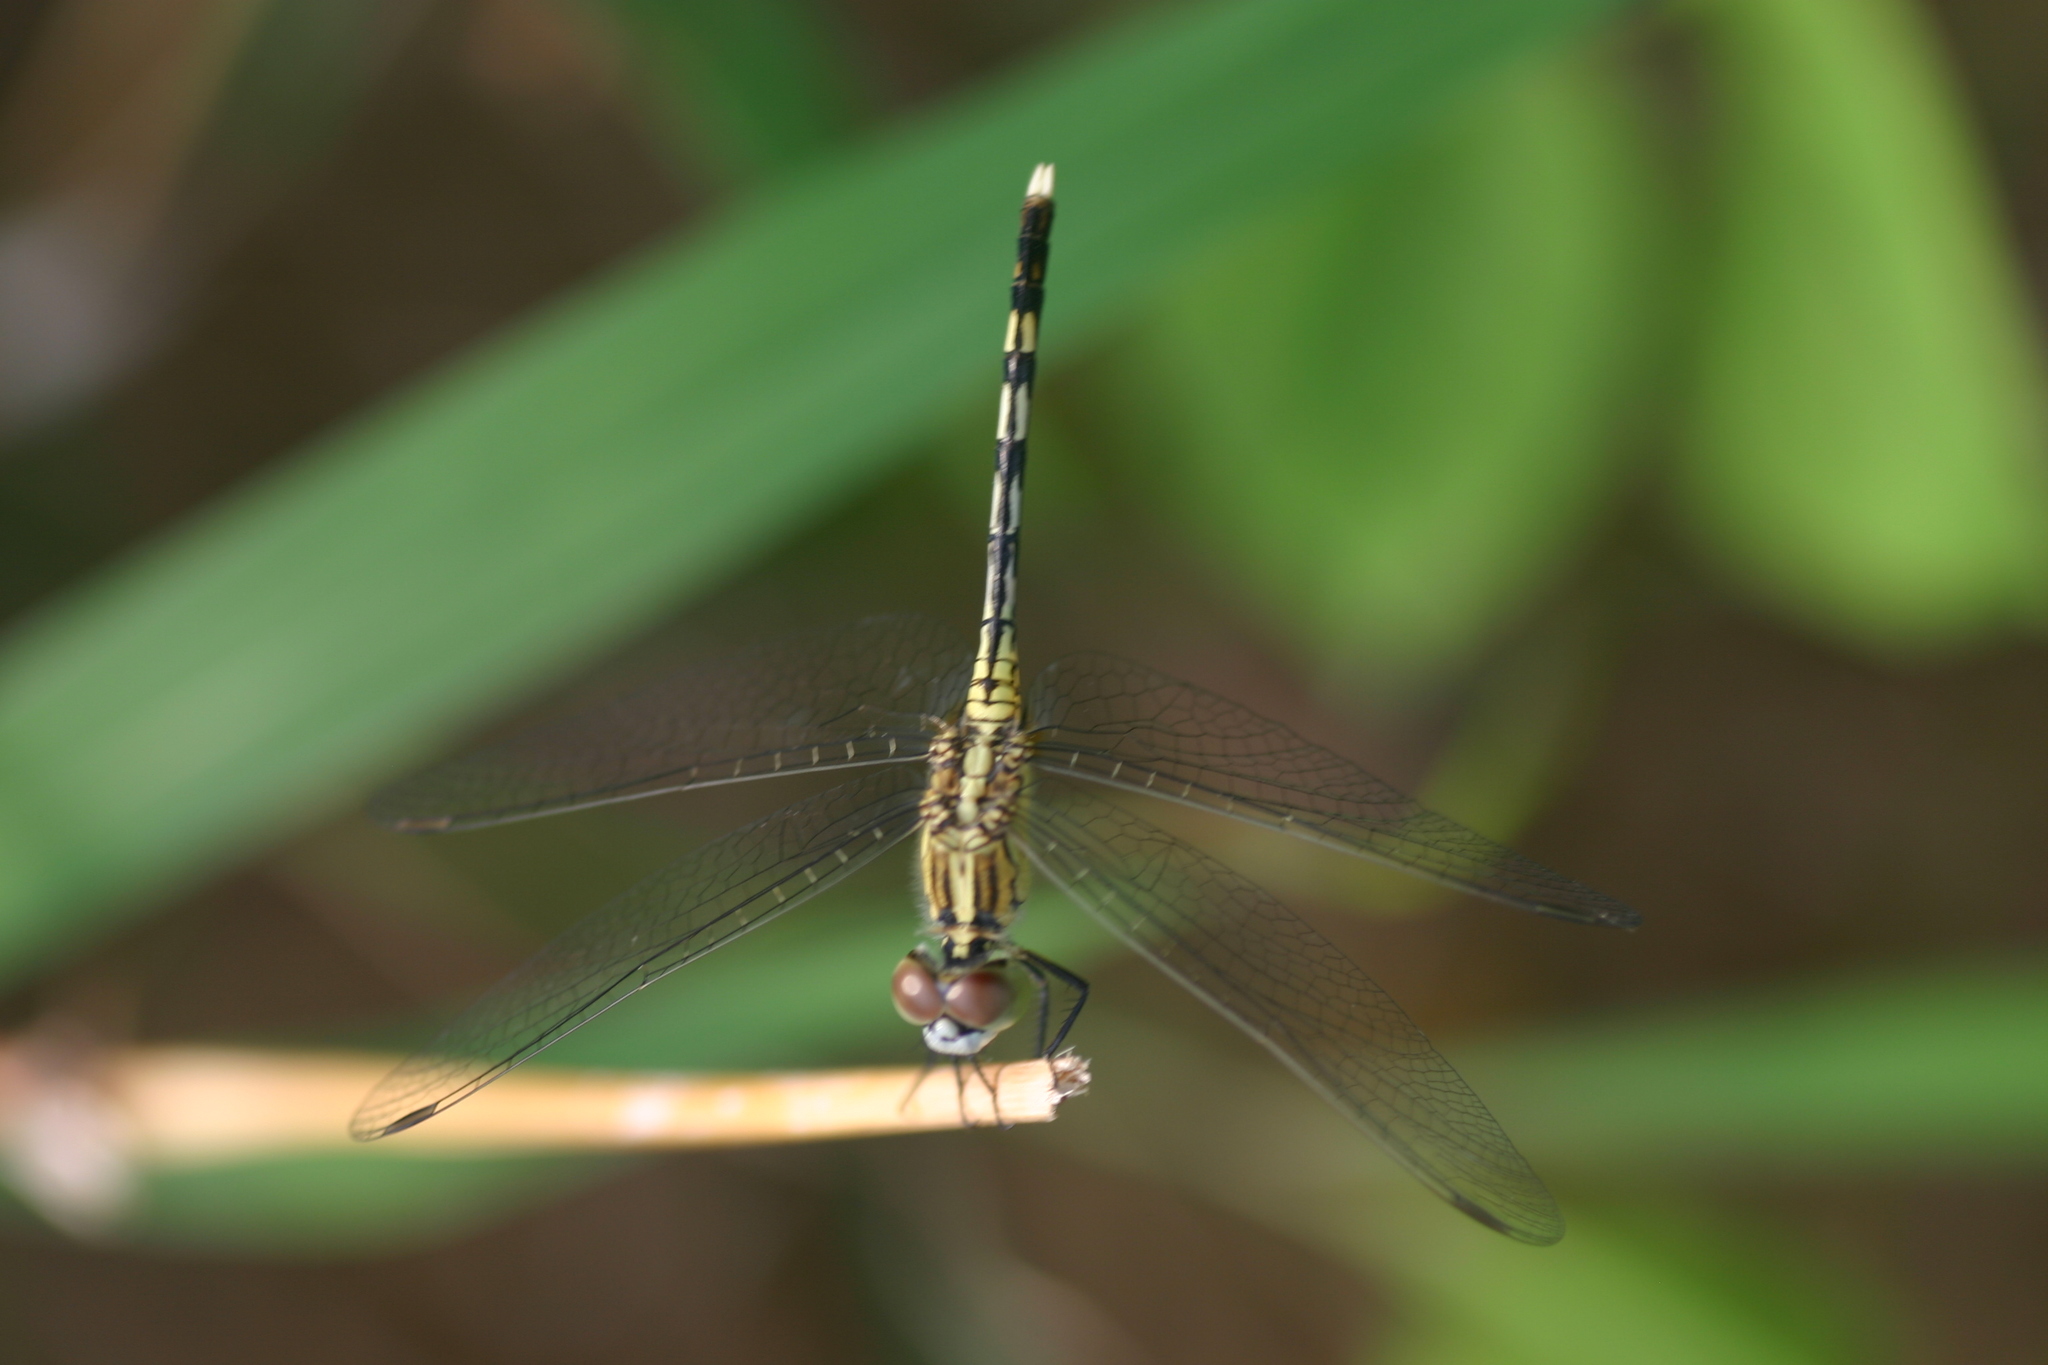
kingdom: Animalia
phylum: Arthropoda
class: Insecta
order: Odonata
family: Libellulidae
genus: Diplacodes
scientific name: Diplacodes trivialis
